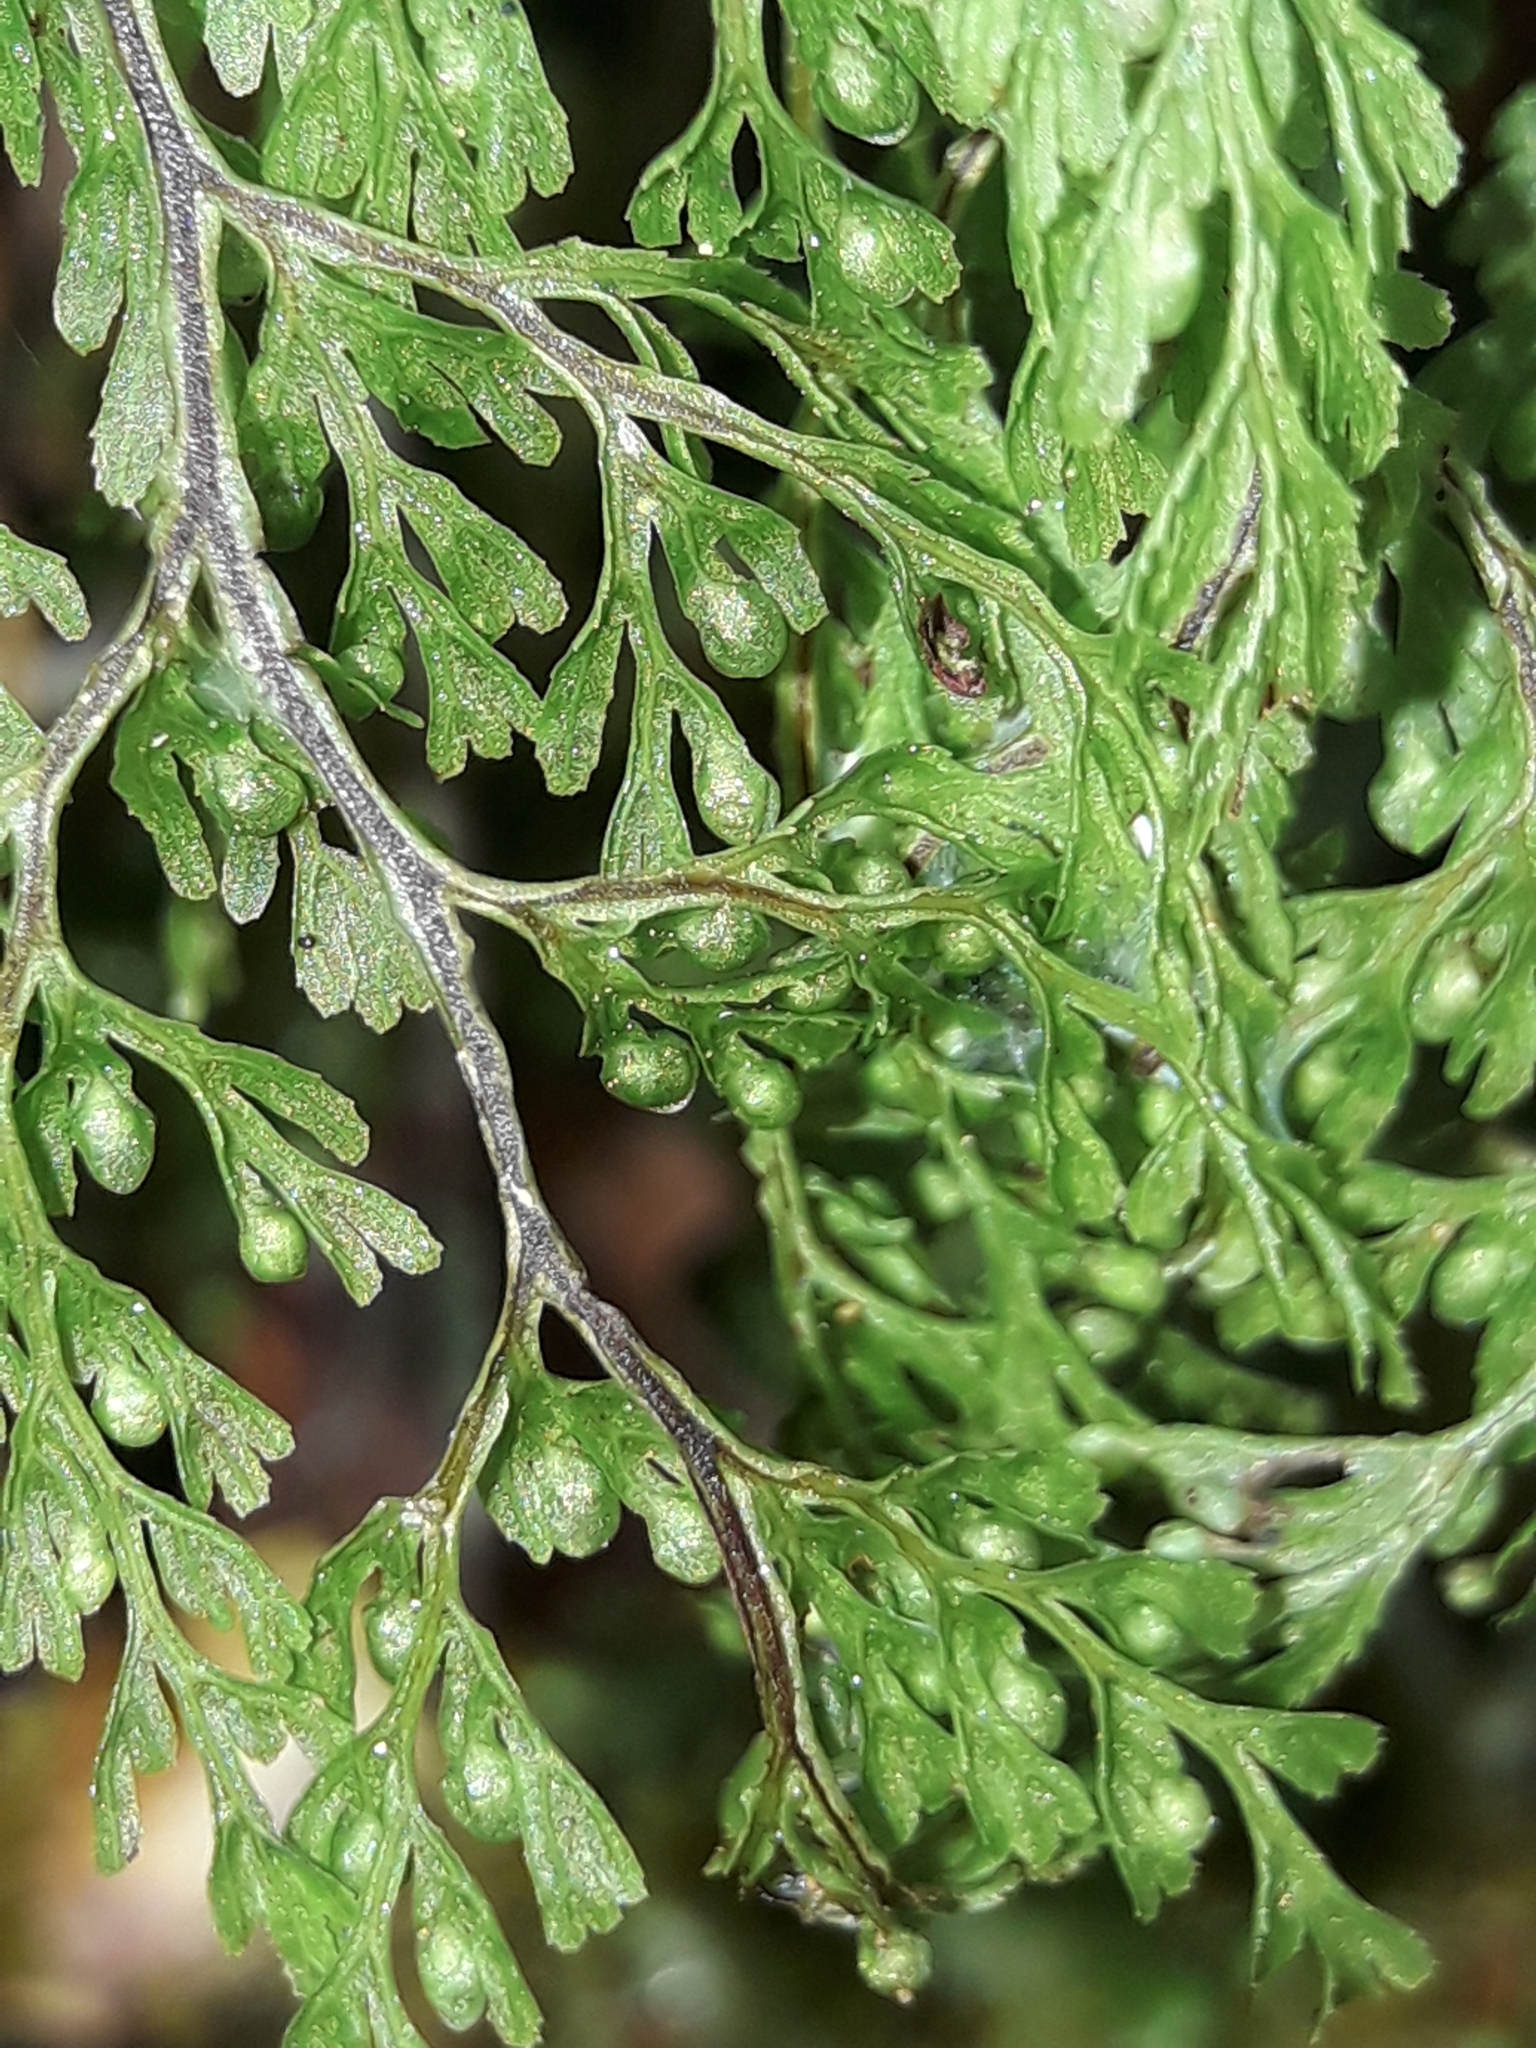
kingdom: Plantae
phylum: Tracheophyta
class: Polypodiopsida
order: Hymenophyllales
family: Hymenophyllaceae
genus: Hymenophyllum
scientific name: Hymenophyllum bivalve
